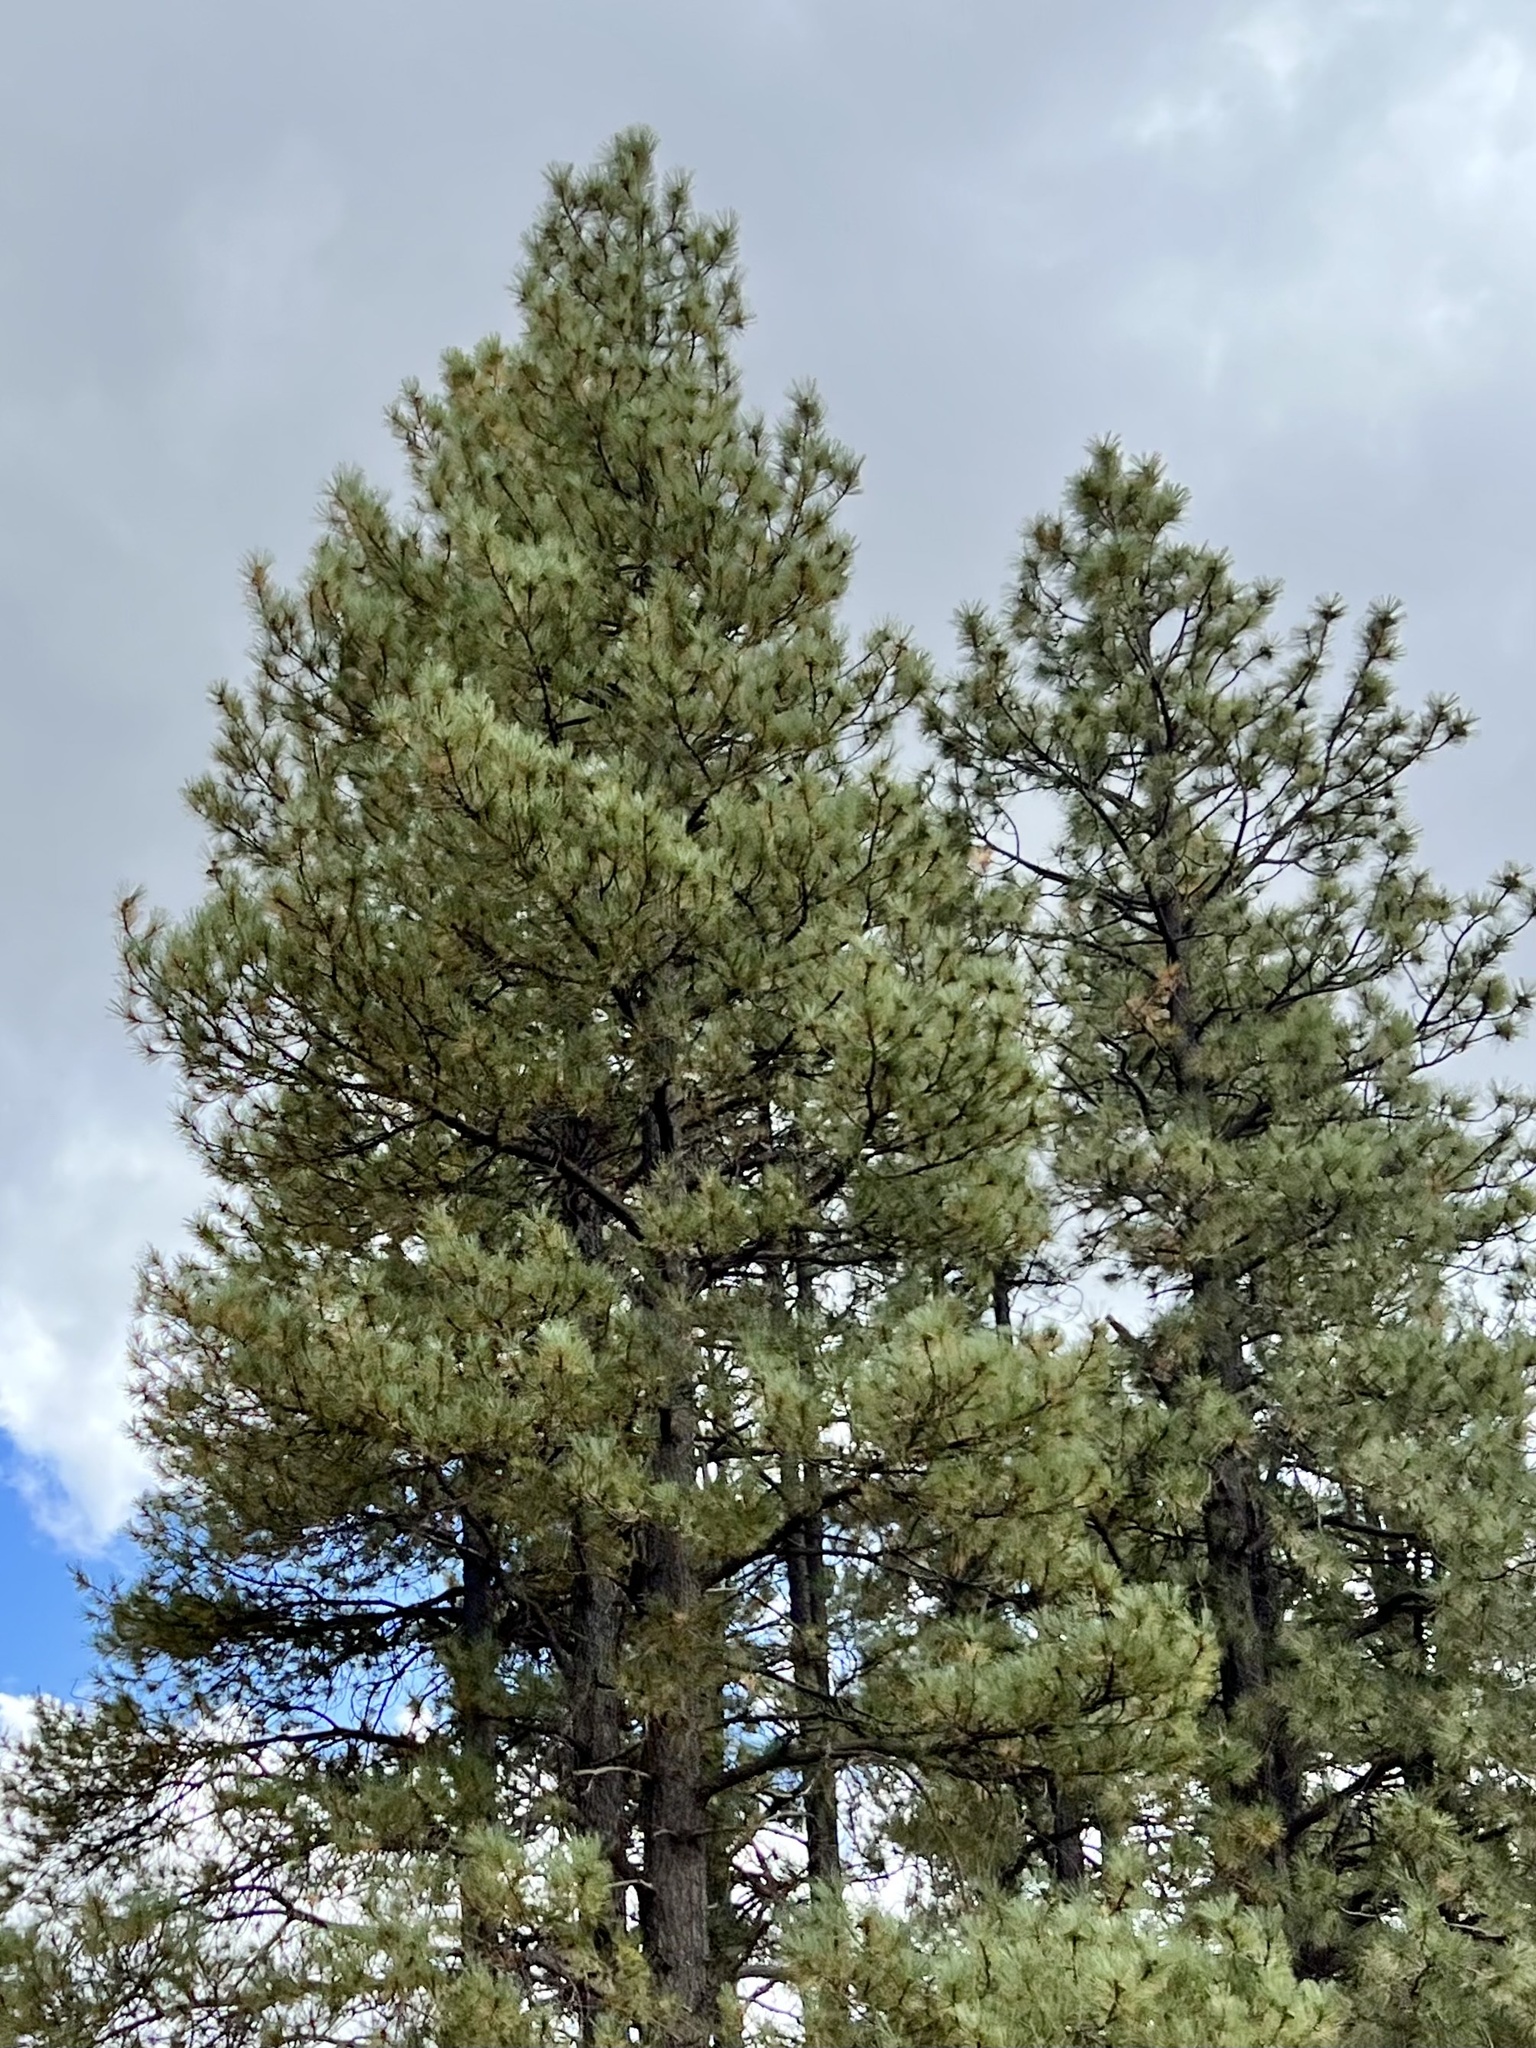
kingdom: Plantae
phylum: Tracheophyta
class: Pinopsida
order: Pinales
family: Pinaceae
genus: Pinus
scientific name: Pinus ponderosa
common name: Western yellow-pine
